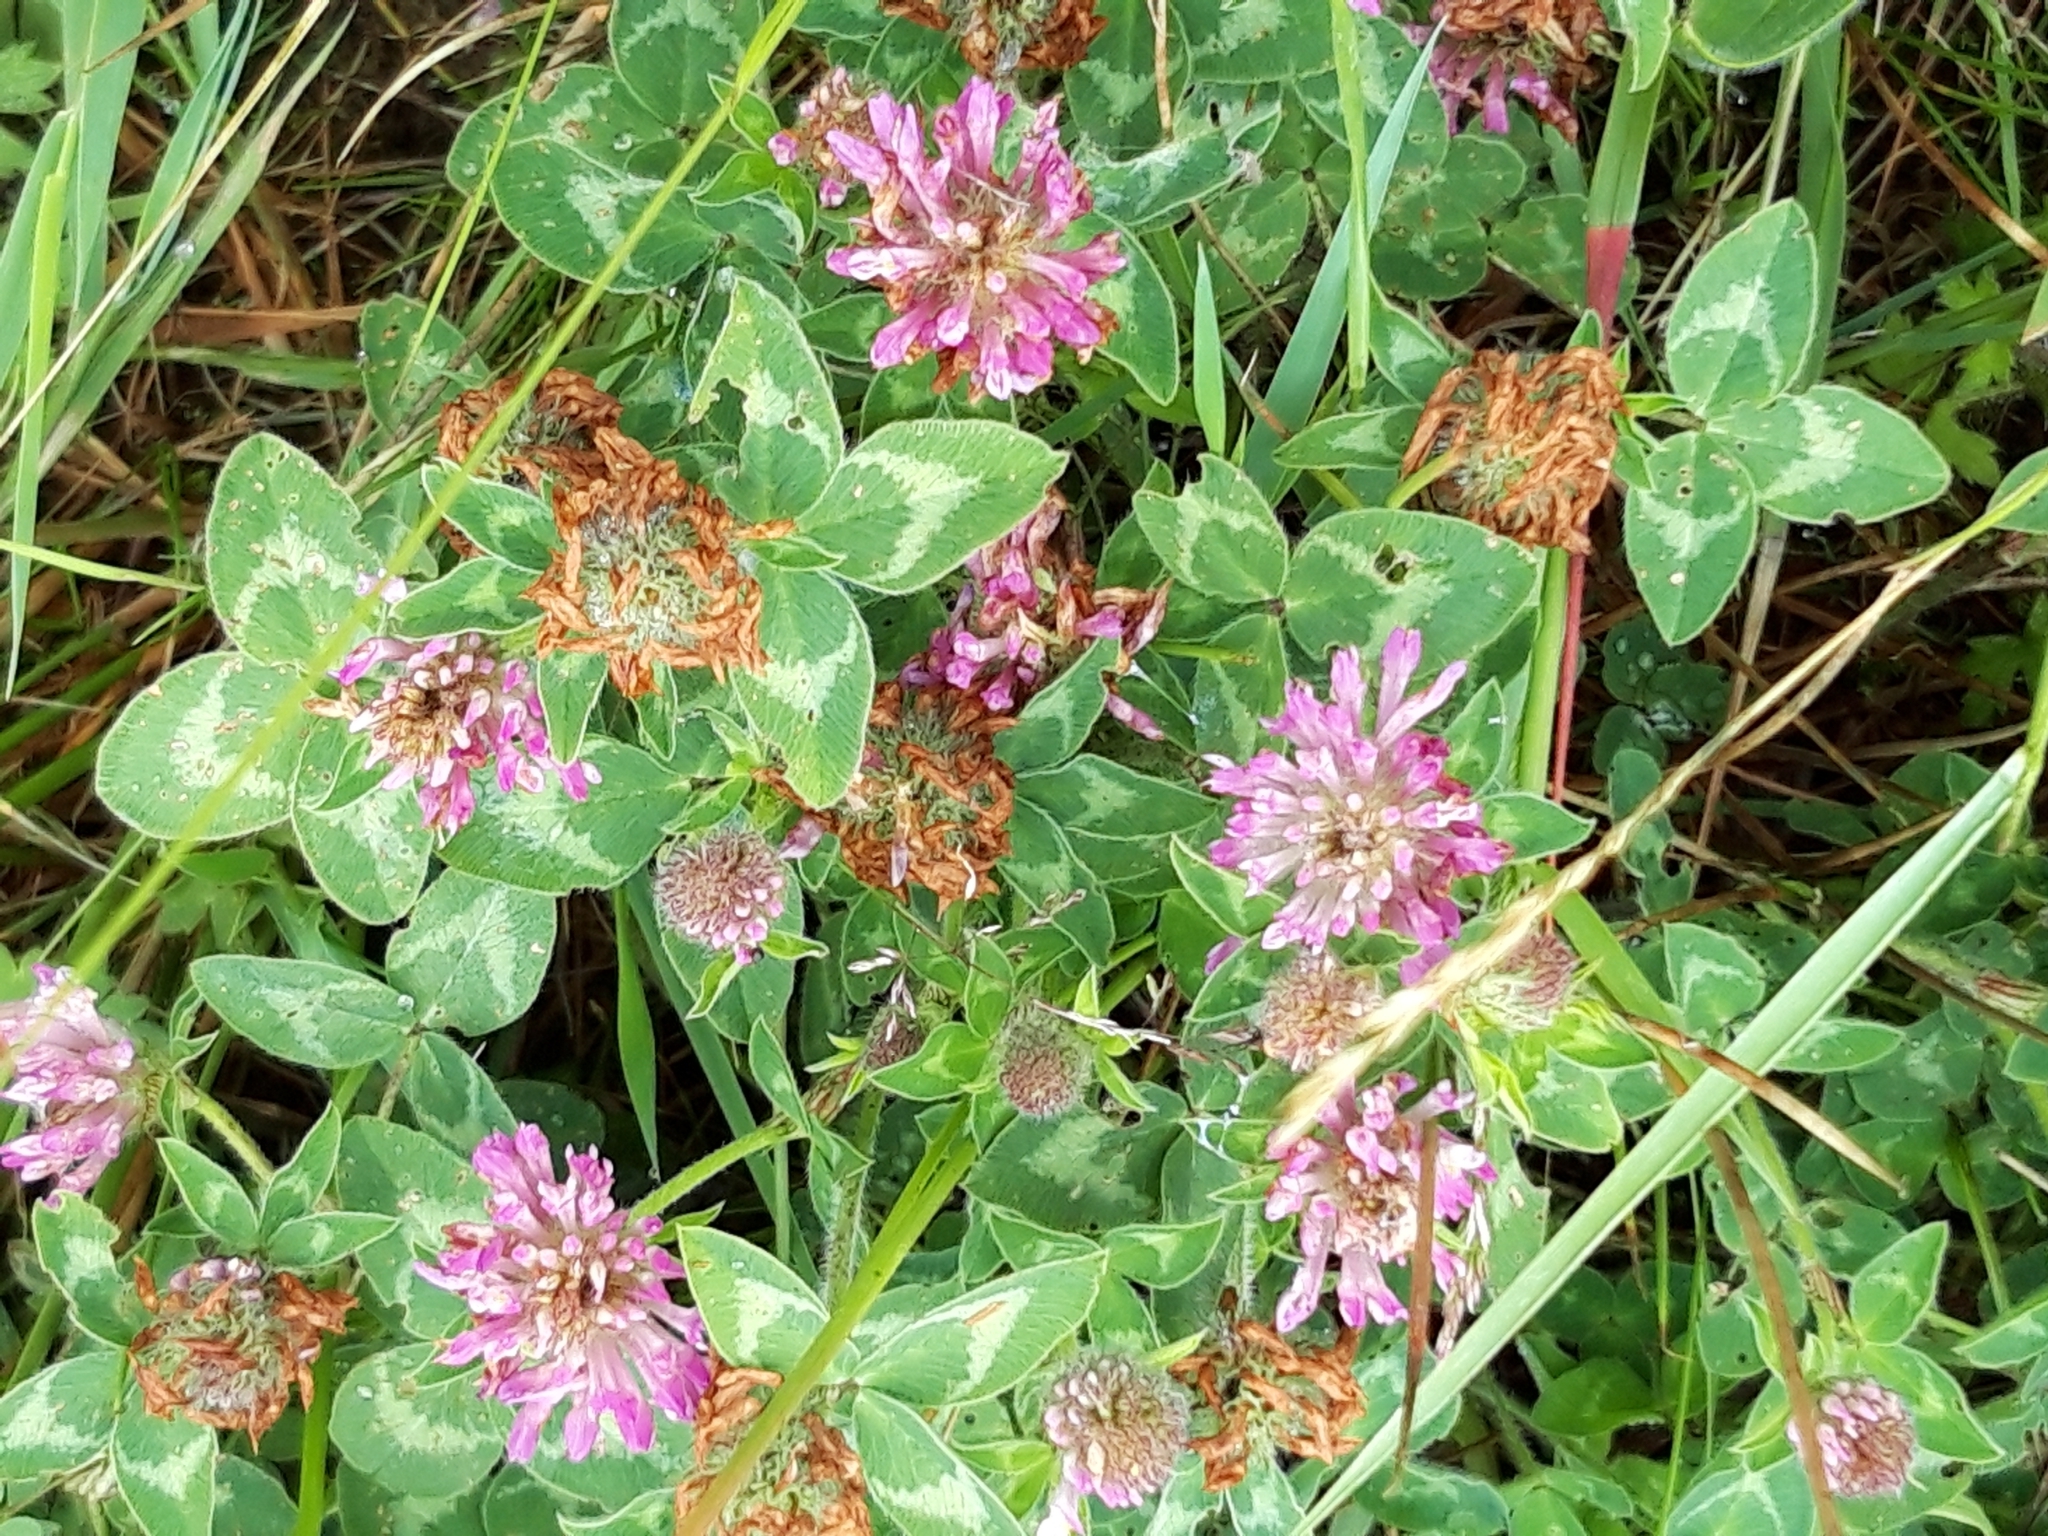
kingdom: Plantae
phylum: Tracheophyta
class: Magnoliopsida
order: Fabales
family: Fabaceae
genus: Trifolium
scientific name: Trifolium pratense
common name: Red clover
